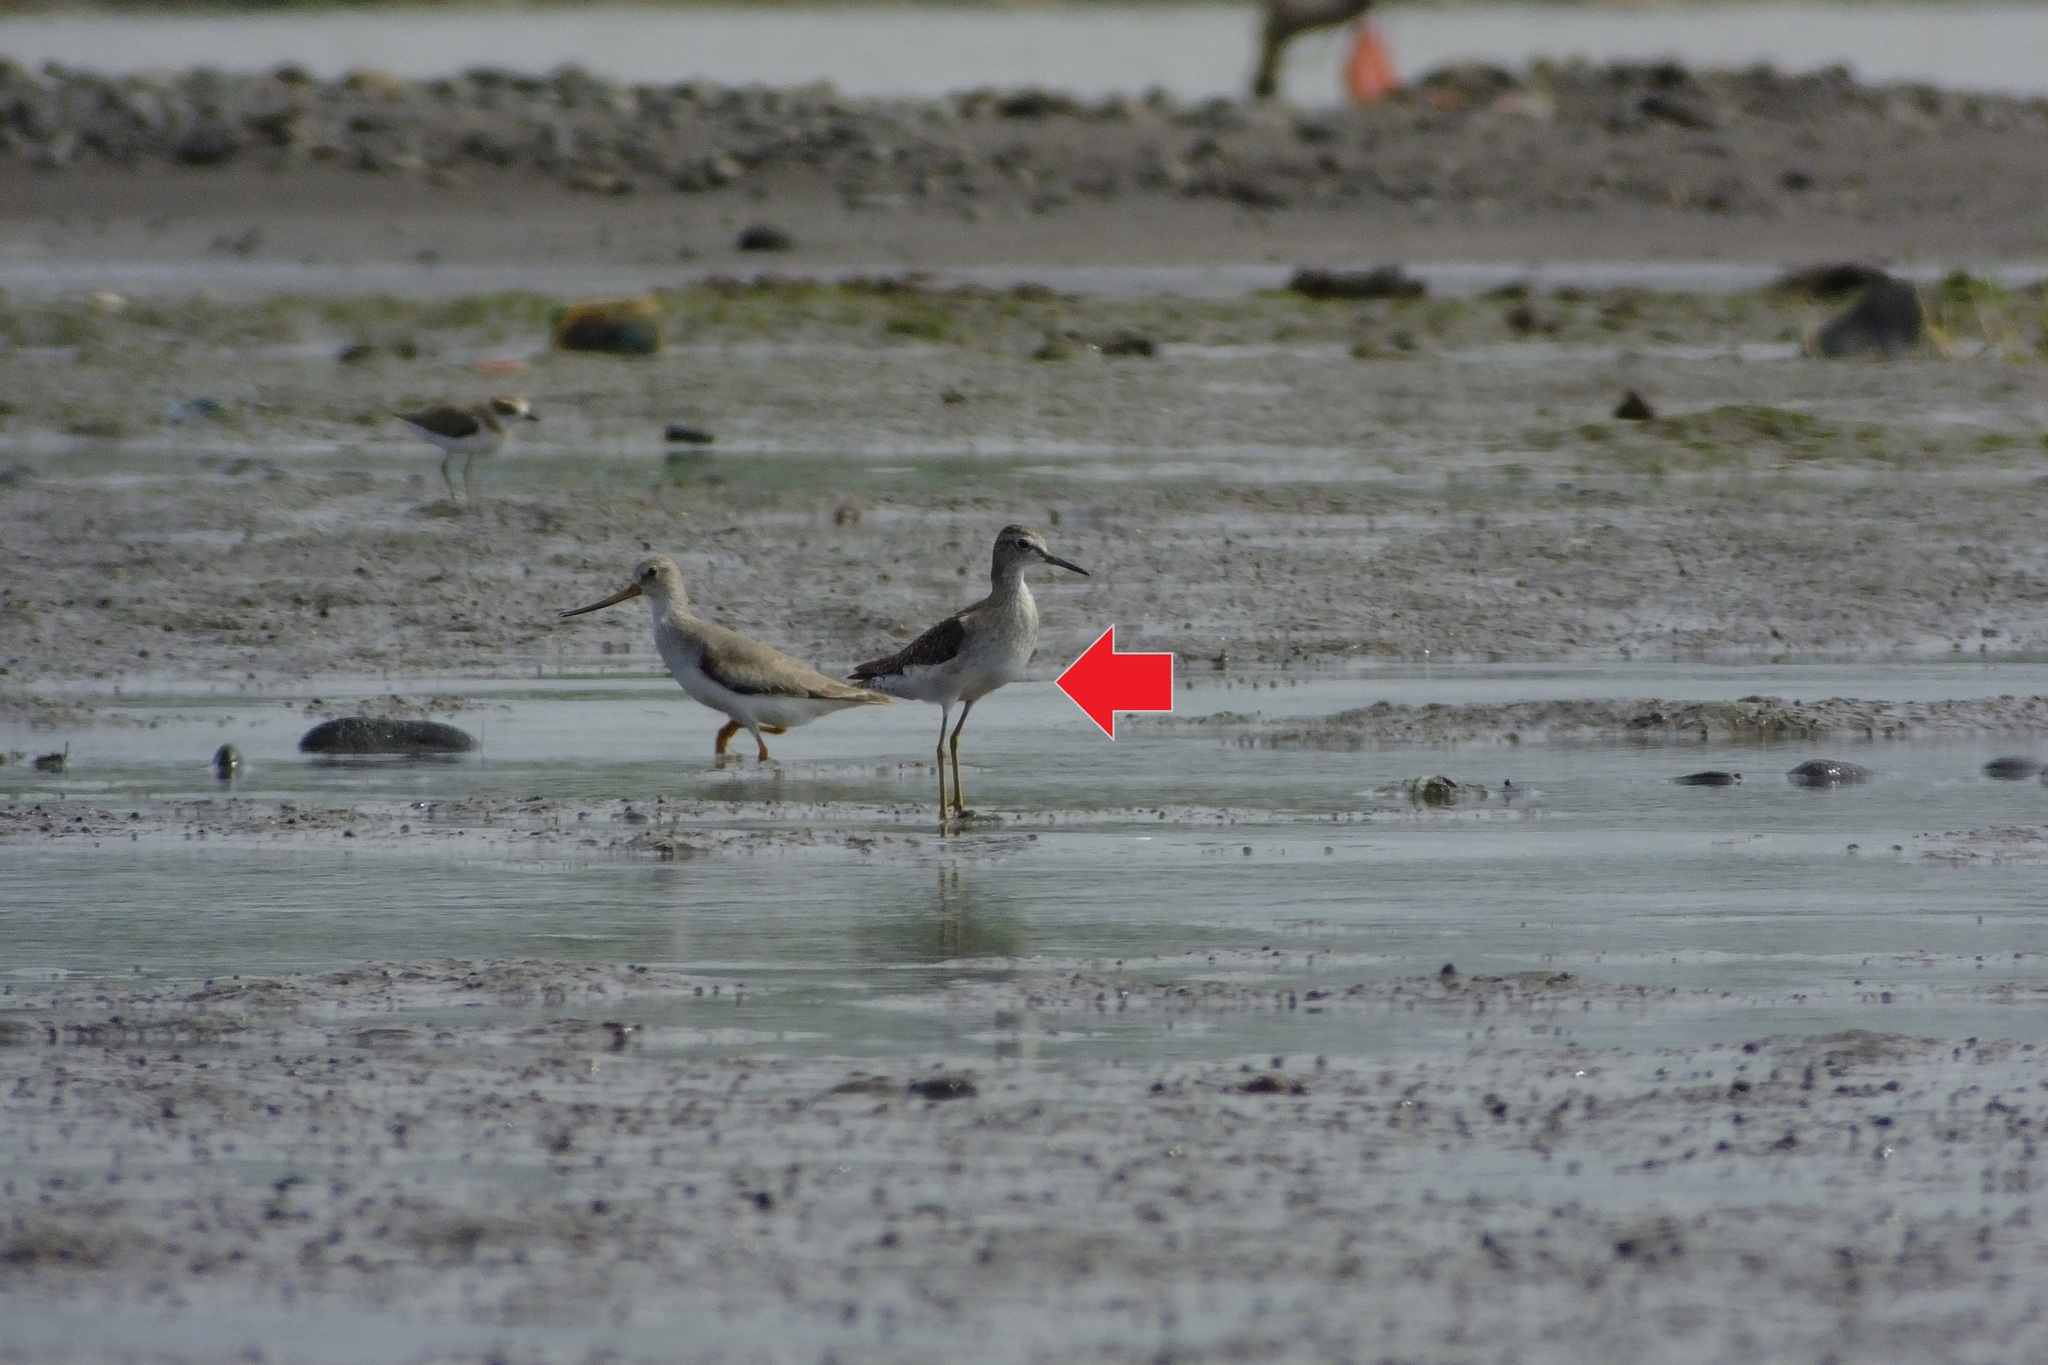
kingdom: Animalia
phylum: Chordata
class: Aves
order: Charadriiformes
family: Scolopacidae
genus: Tringa
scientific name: Tringa glareola
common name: Wood sandpiper
